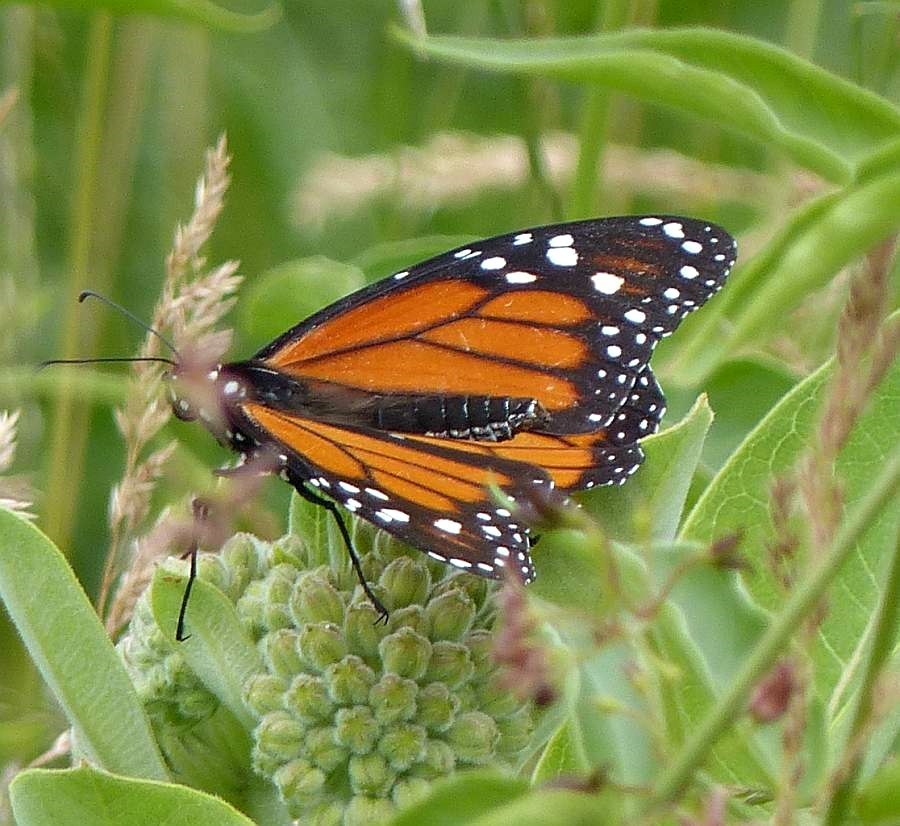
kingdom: Animalia
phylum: Arthropoda
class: Insecta
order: Lepidoptera
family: Nymphalidae
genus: Danaus
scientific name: Danaus plexippus
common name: Monarch
